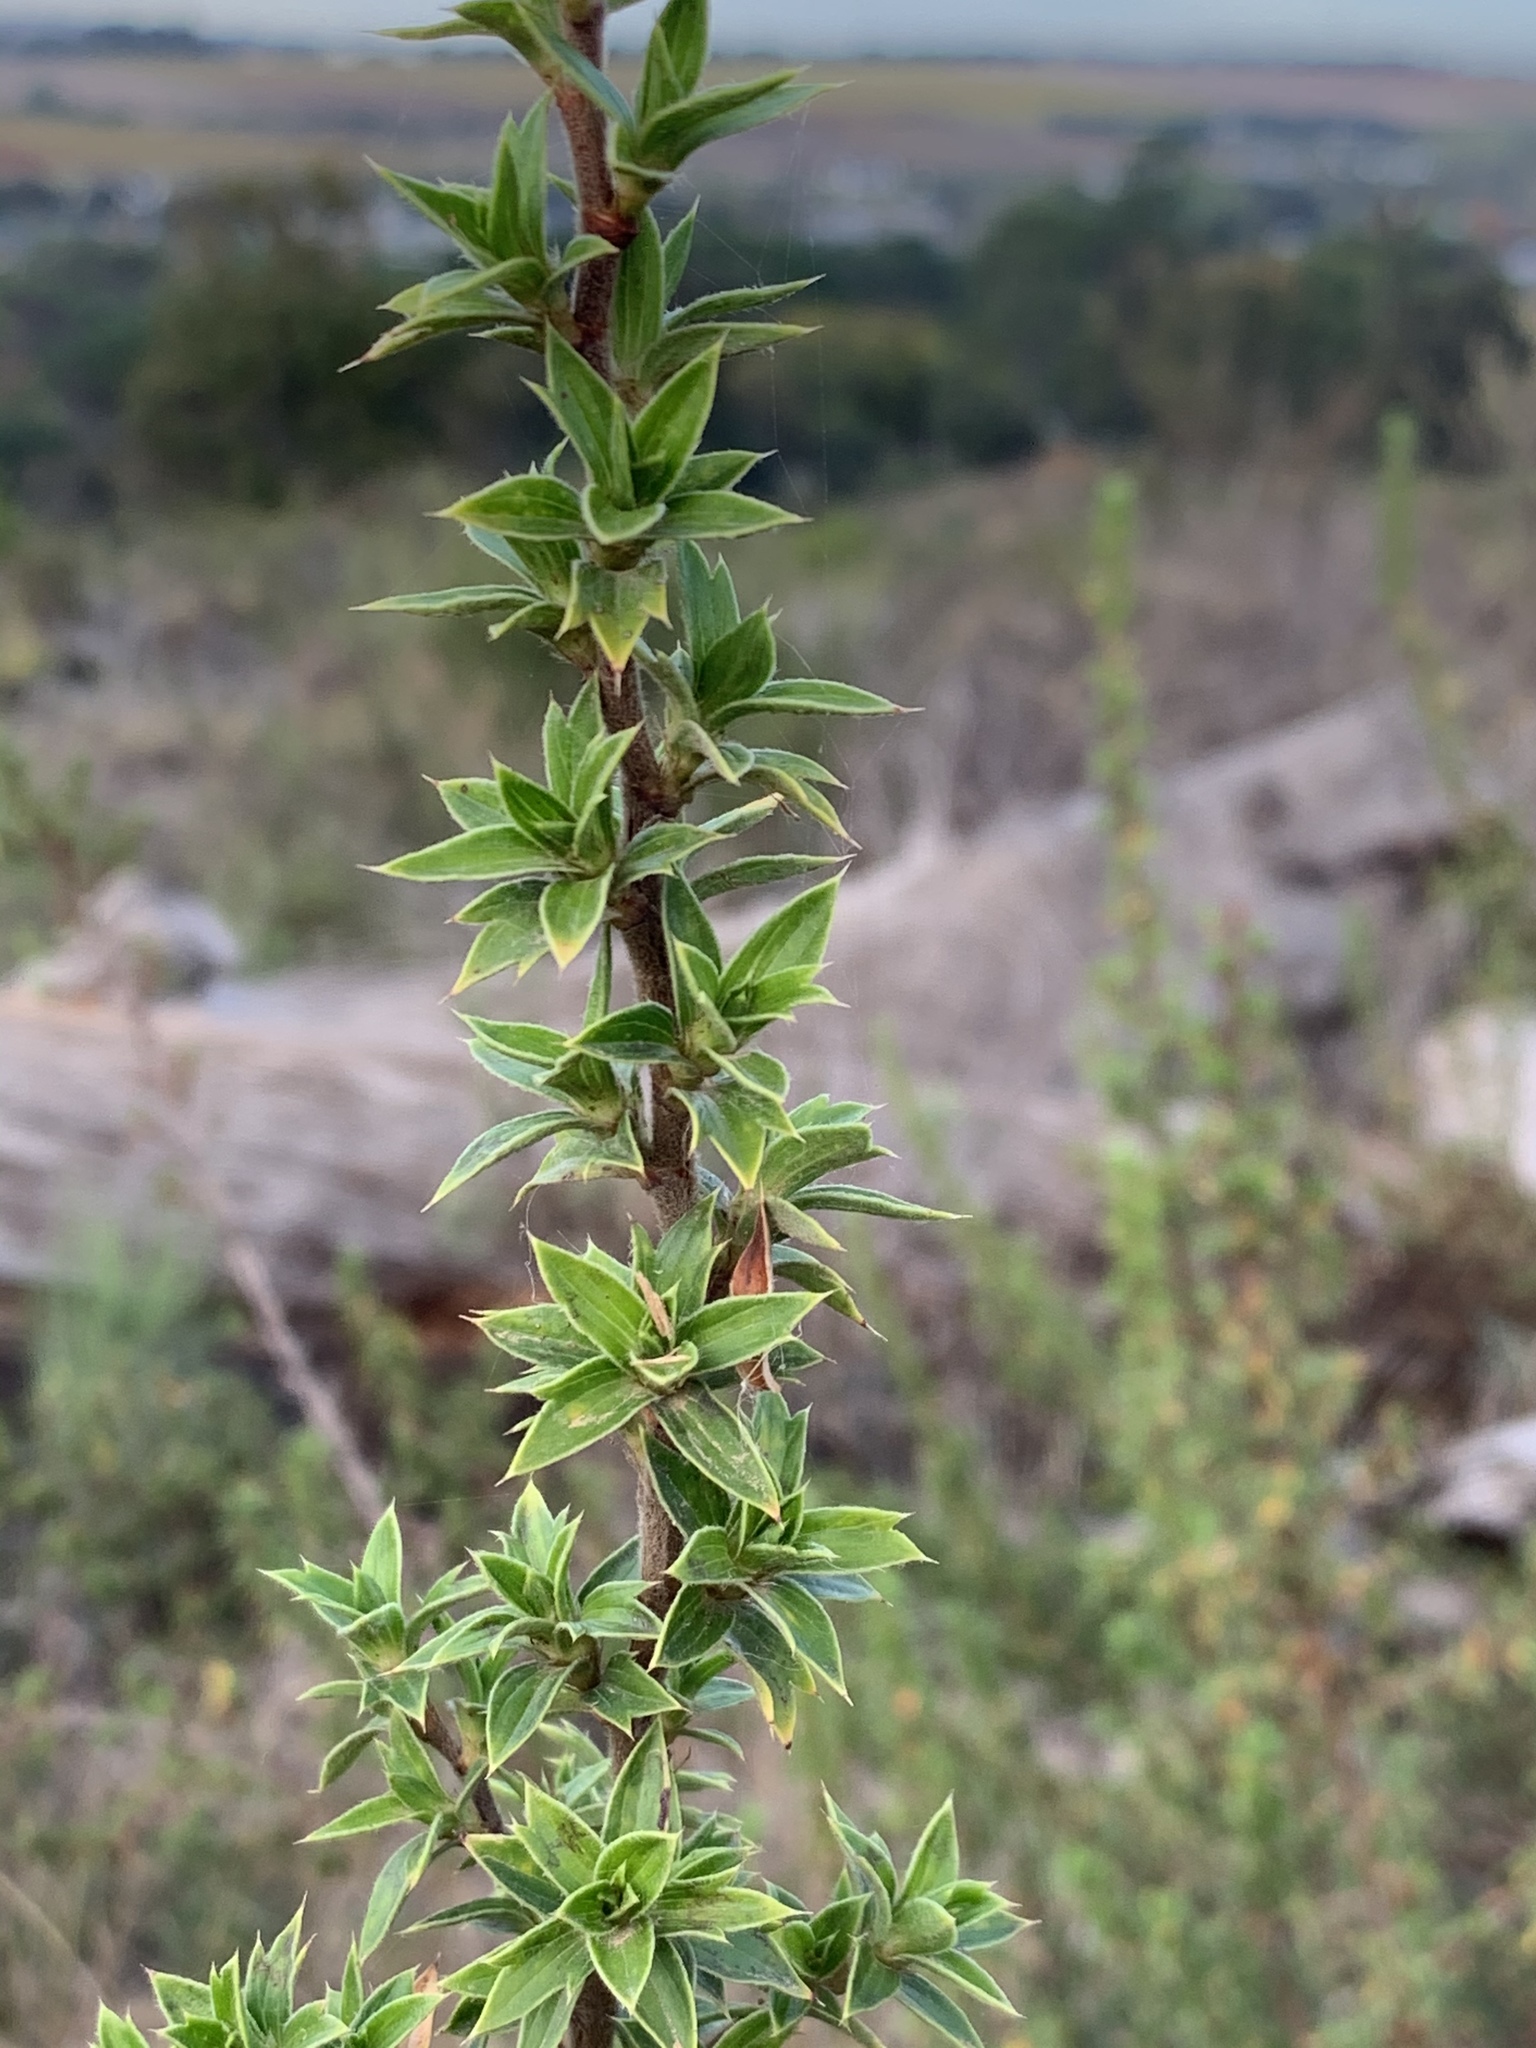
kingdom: Plantae
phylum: Tracheophyta
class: Magnoliopsida
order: Rosales
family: Rosaceae
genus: Cliffortia
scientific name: Cliffortia ruscifolia
